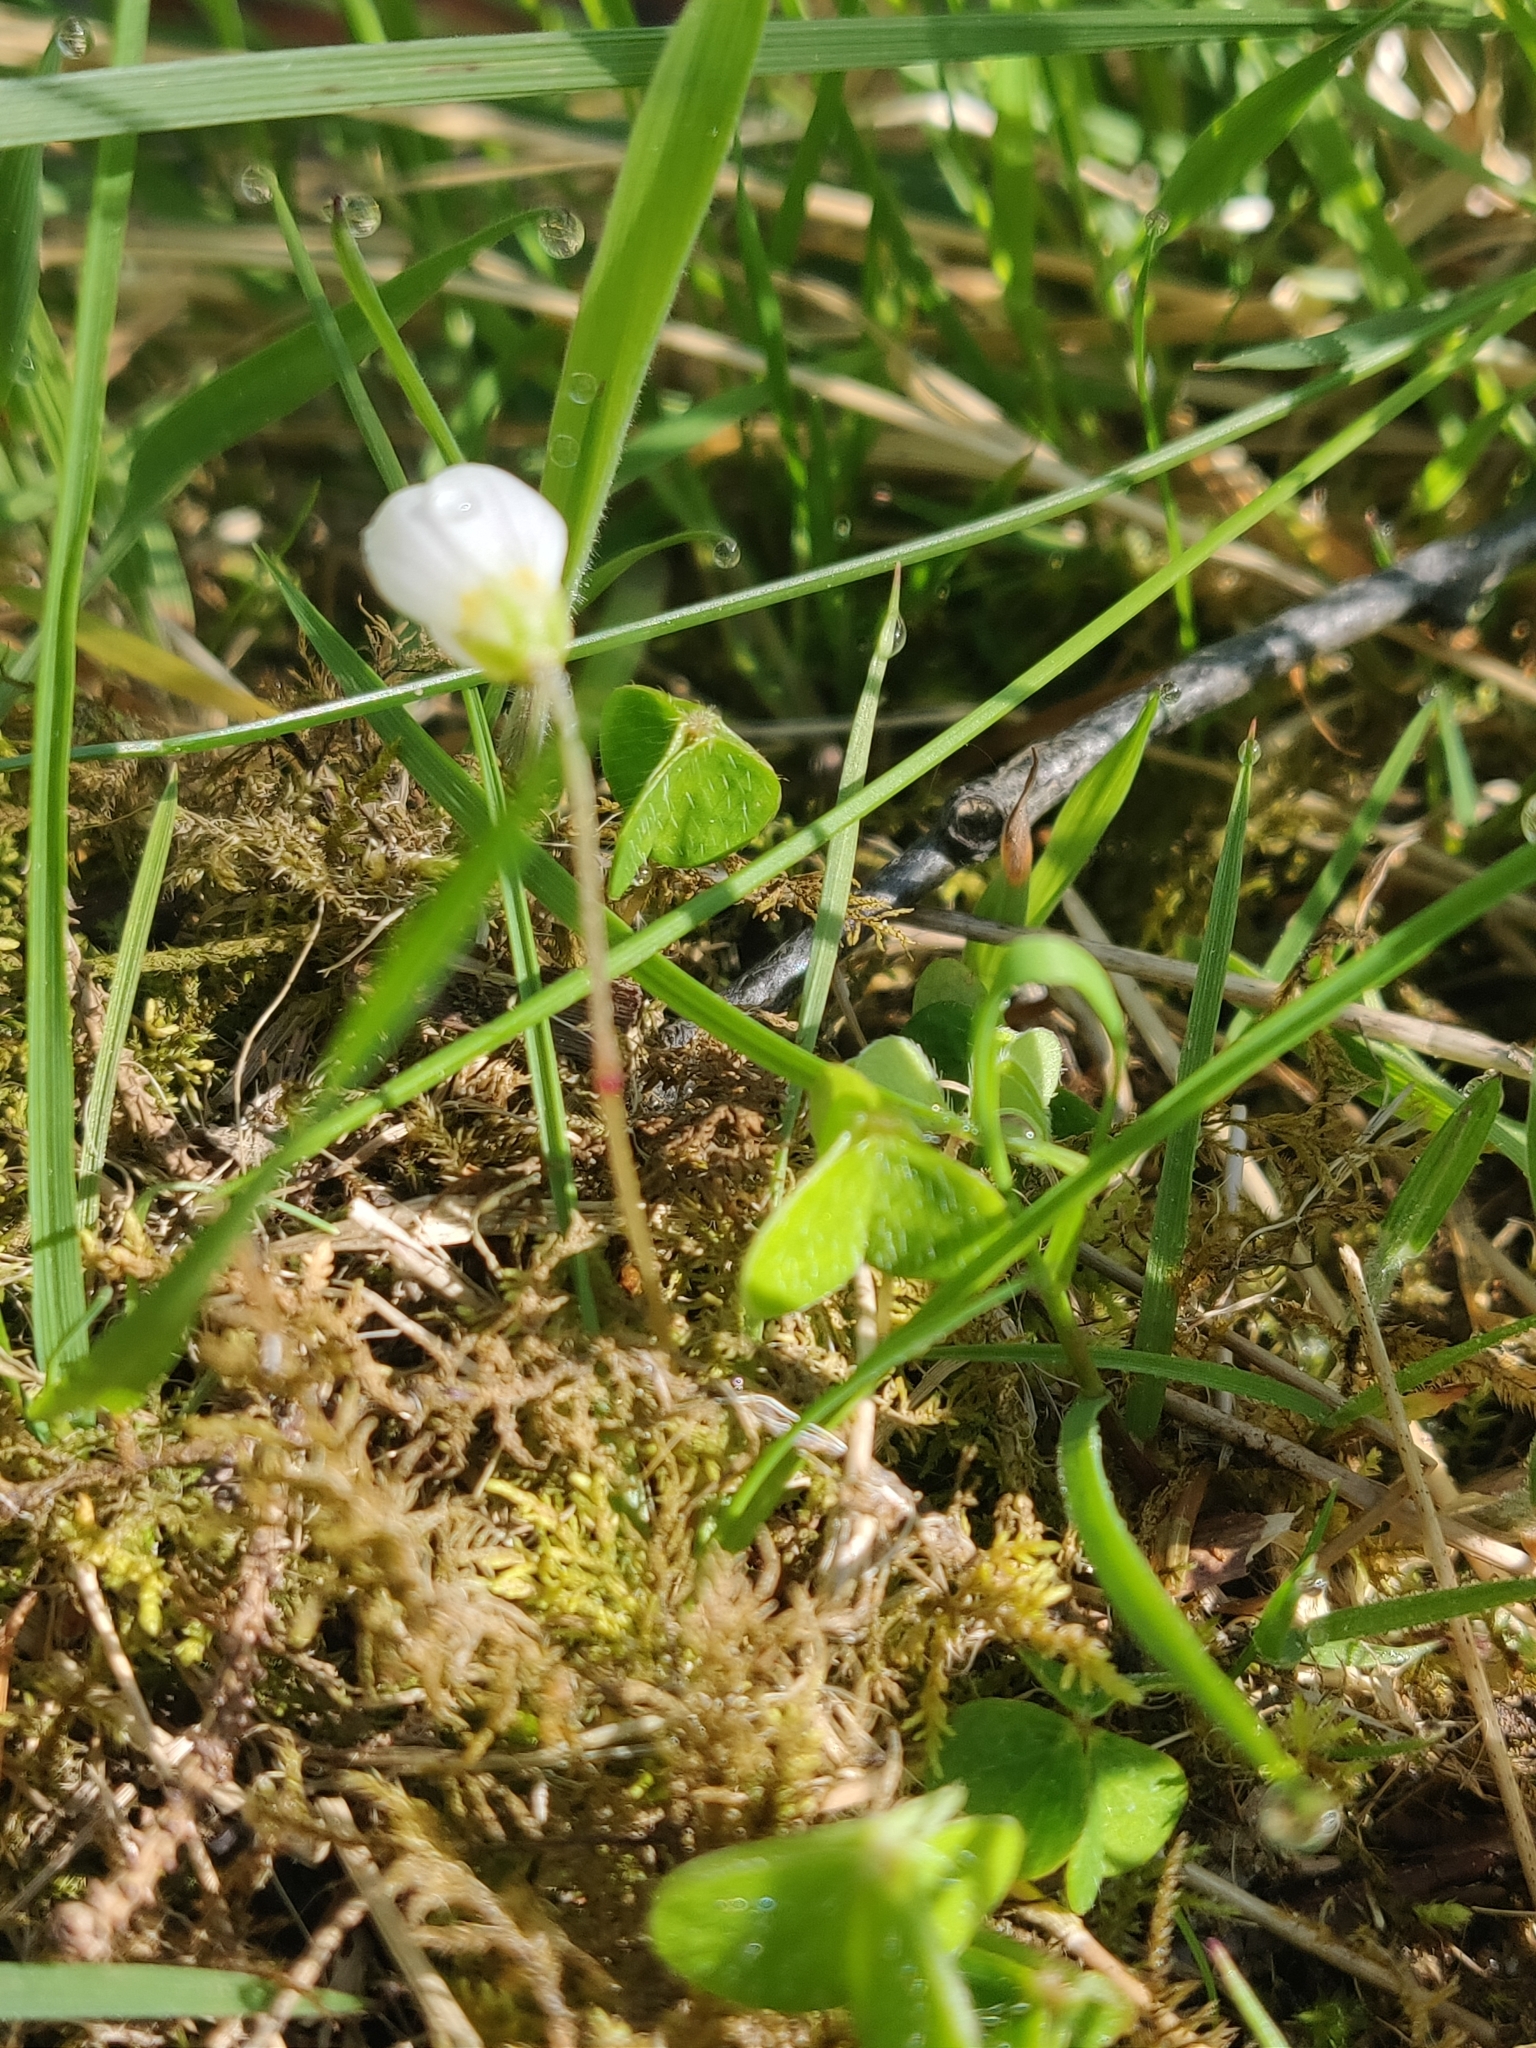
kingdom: Plantae
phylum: Tracheophyta
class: Magnoliopsida
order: Oxalidales
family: Oxalidaceae
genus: Oxalis
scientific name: Oxalis acetosella
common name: Wood-sorrel
